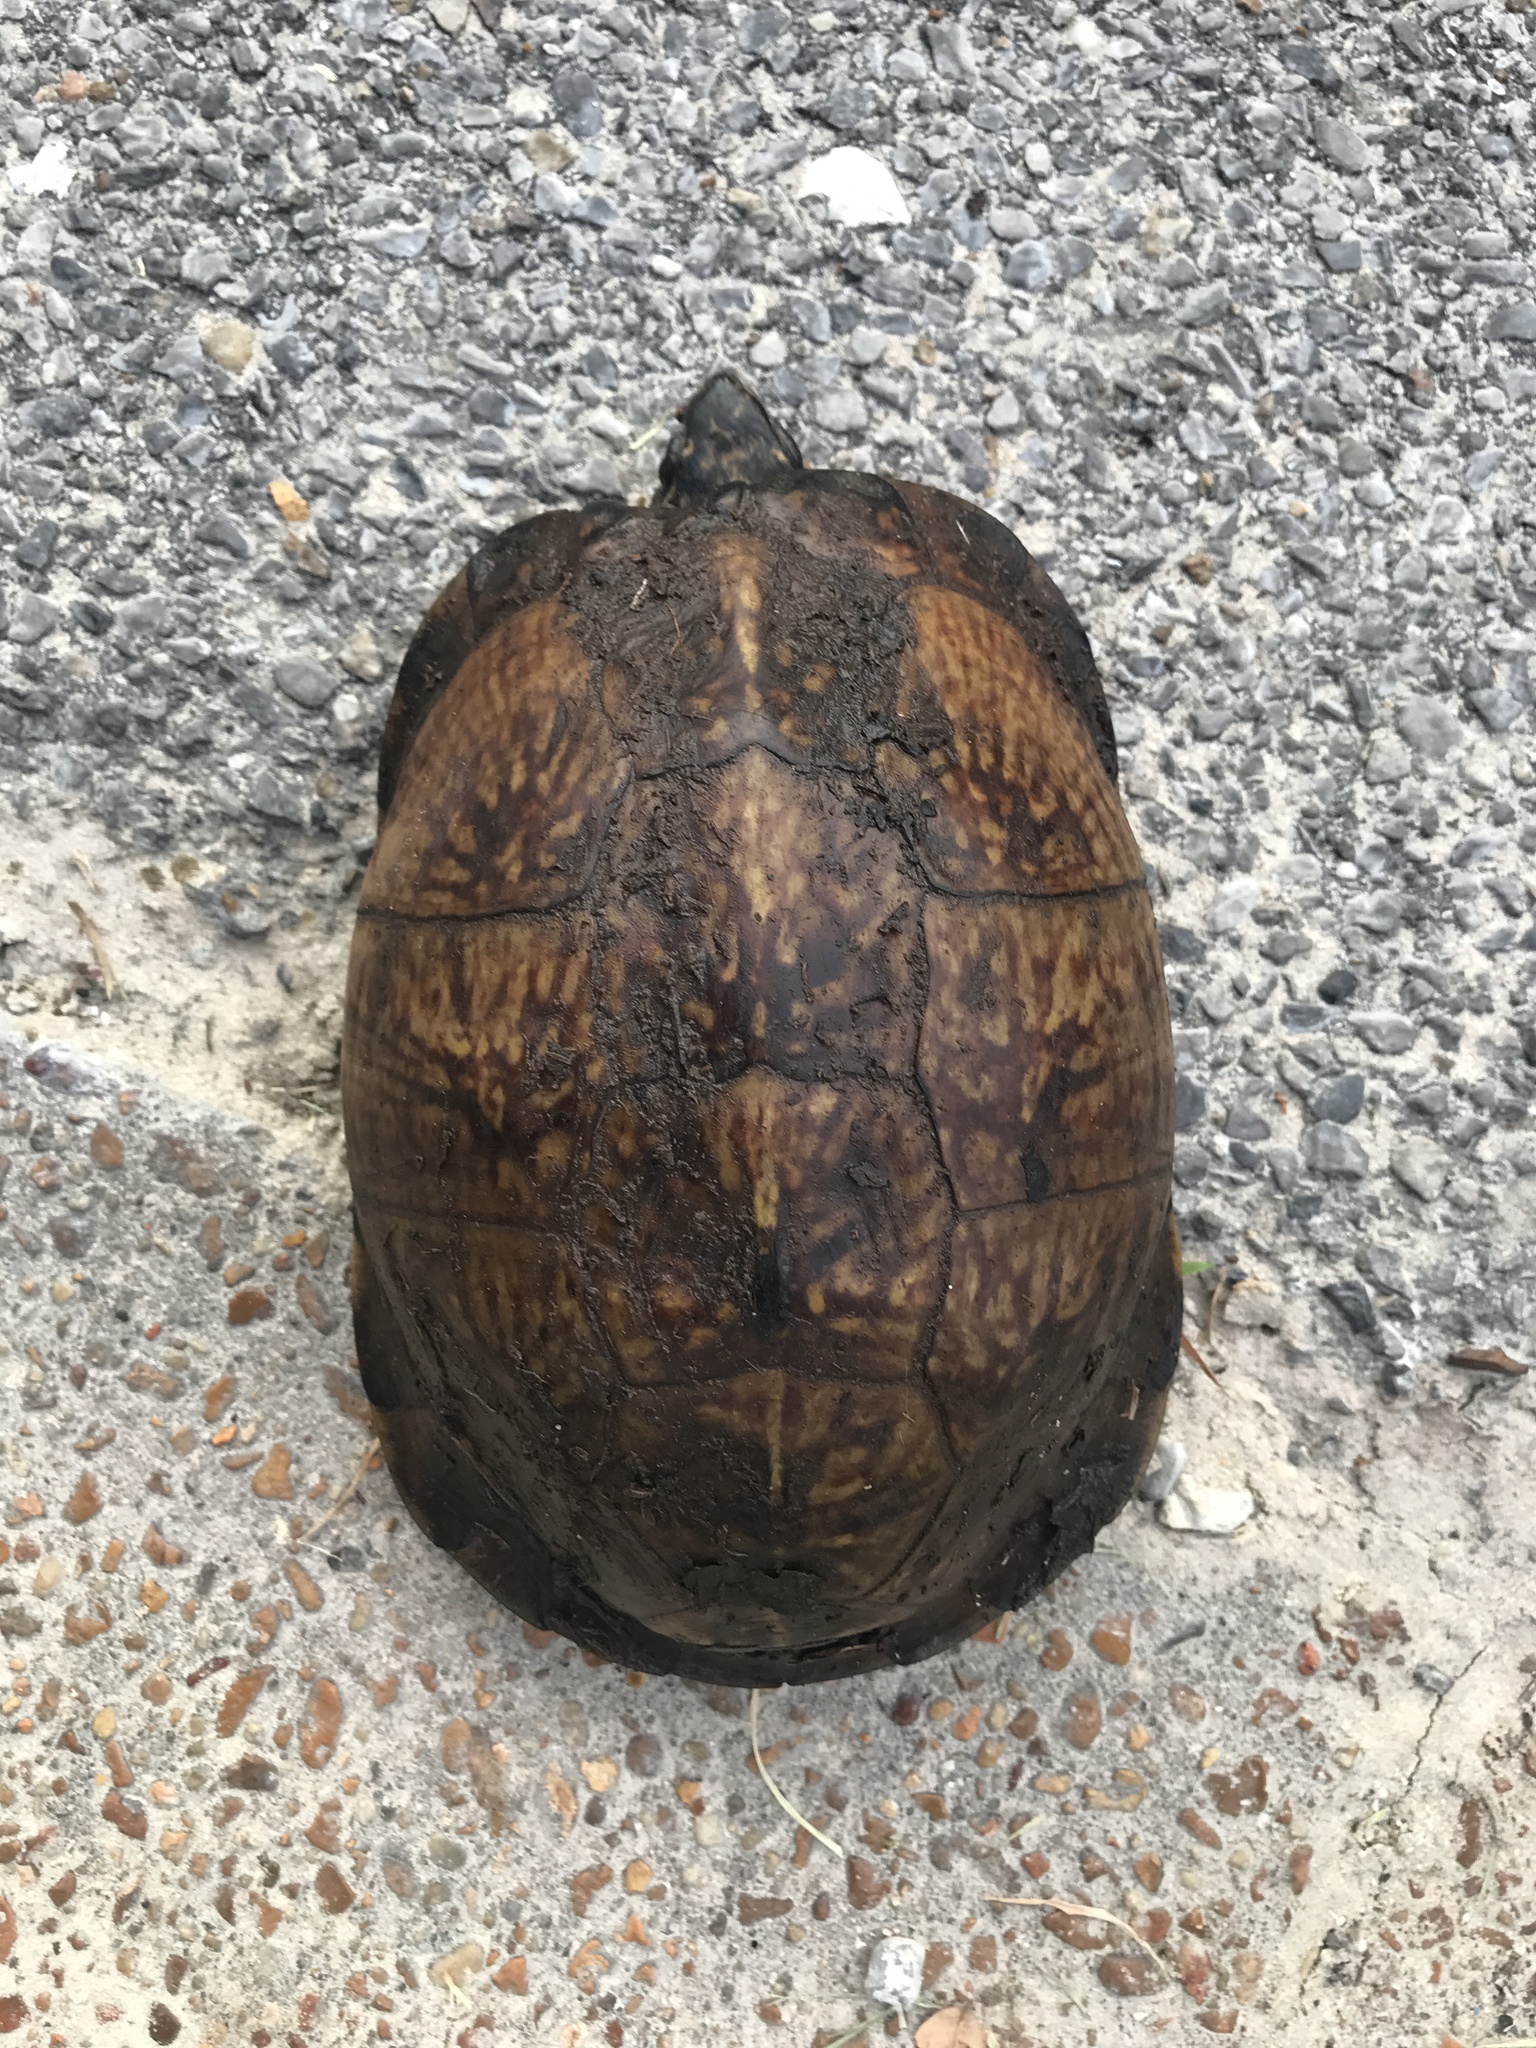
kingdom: Animalia
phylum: Chordata
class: Testudines
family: Emydidae
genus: Terrapene
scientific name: Terrapene carolina
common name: Common box turtle
